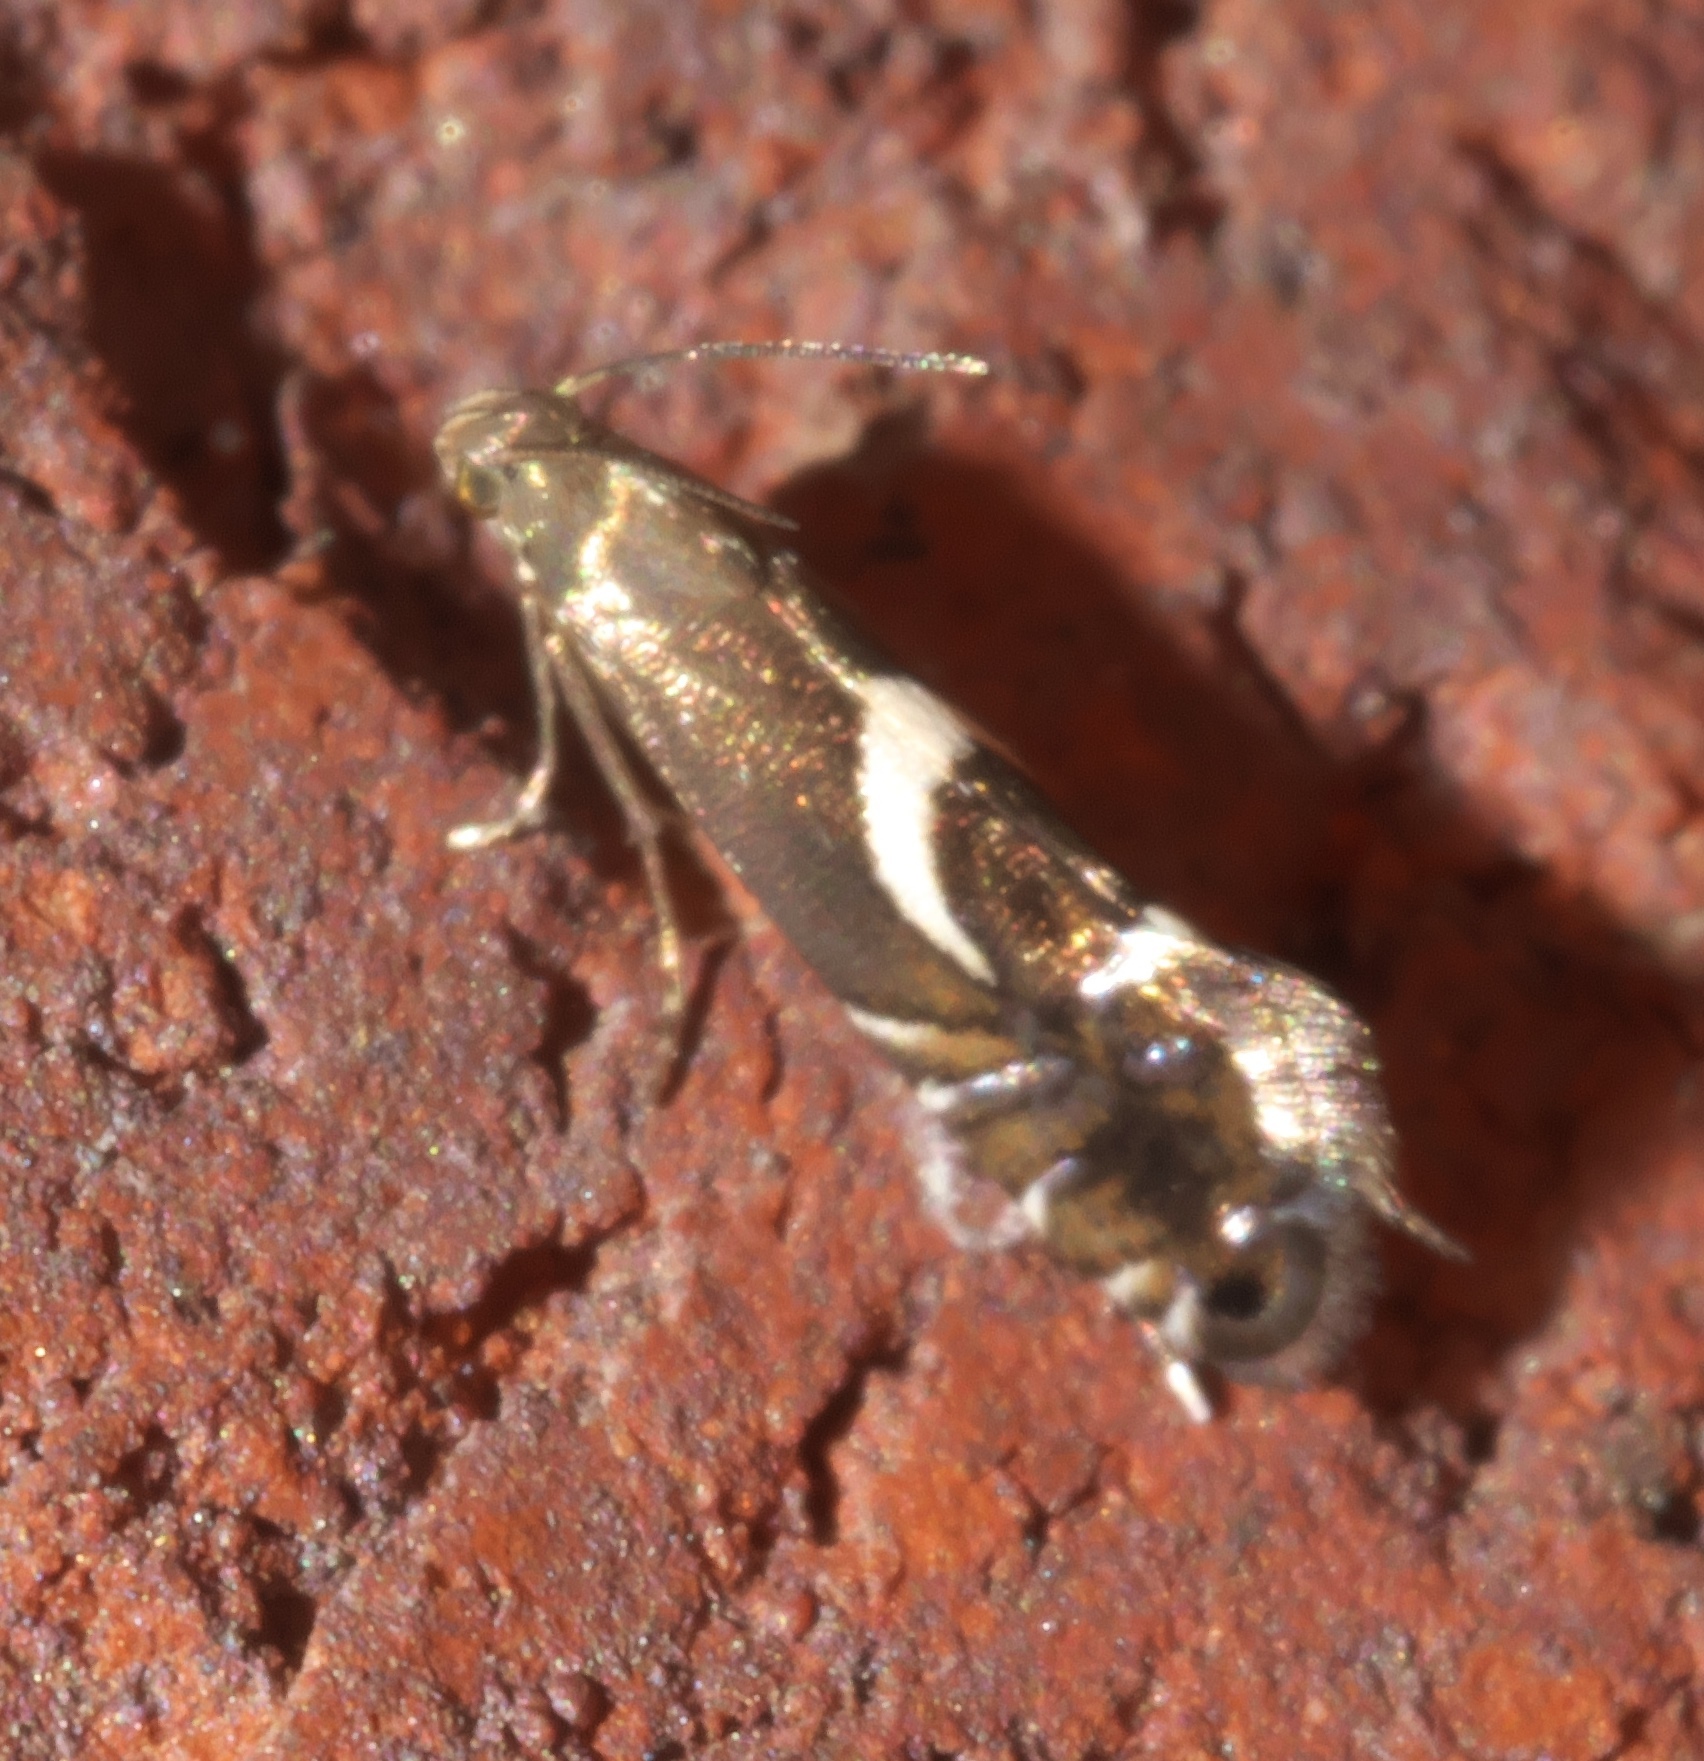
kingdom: Animalia
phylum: Arthropoda
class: Insecta
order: Lepidoptera
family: Glyphipterigidae
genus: Glyphipterix
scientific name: Glyphipterix Diploschizia impigritella
